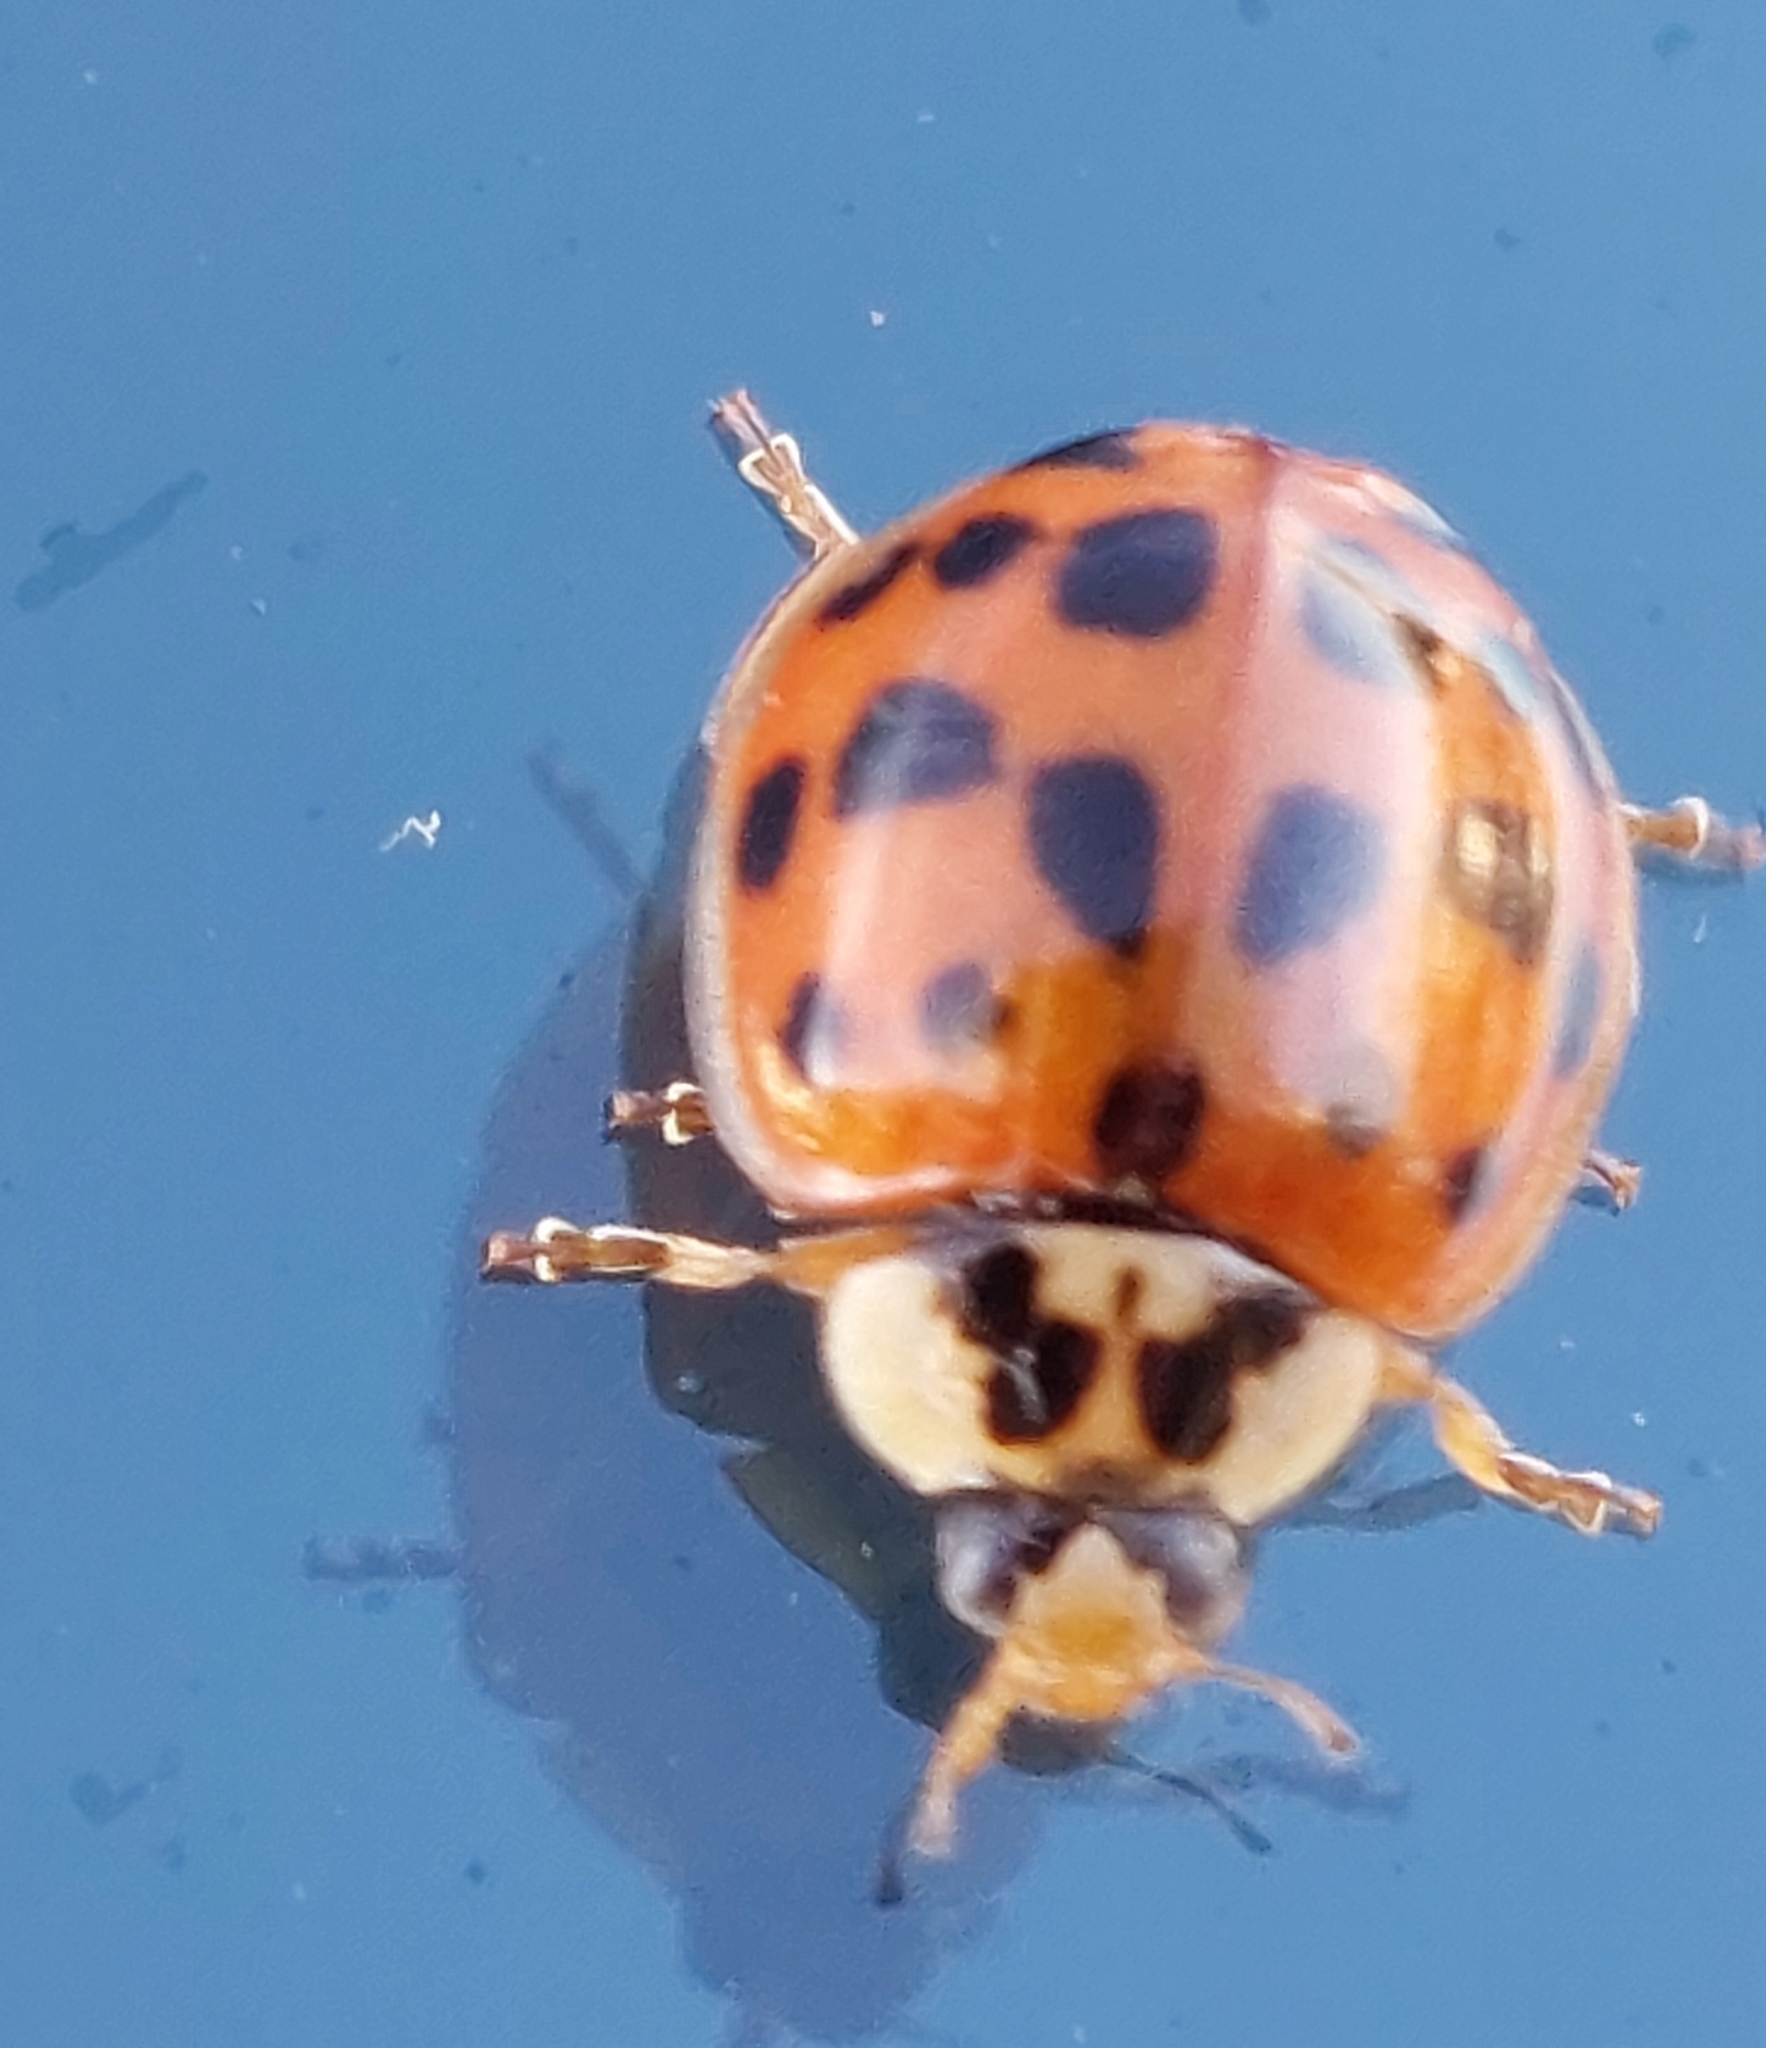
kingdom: Animalia
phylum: Arthropoda
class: Insecta
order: Coleoptera
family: Coccinellidae
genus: Harmonia
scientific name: Harmonia axyridis
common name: Harlequin ladybird
